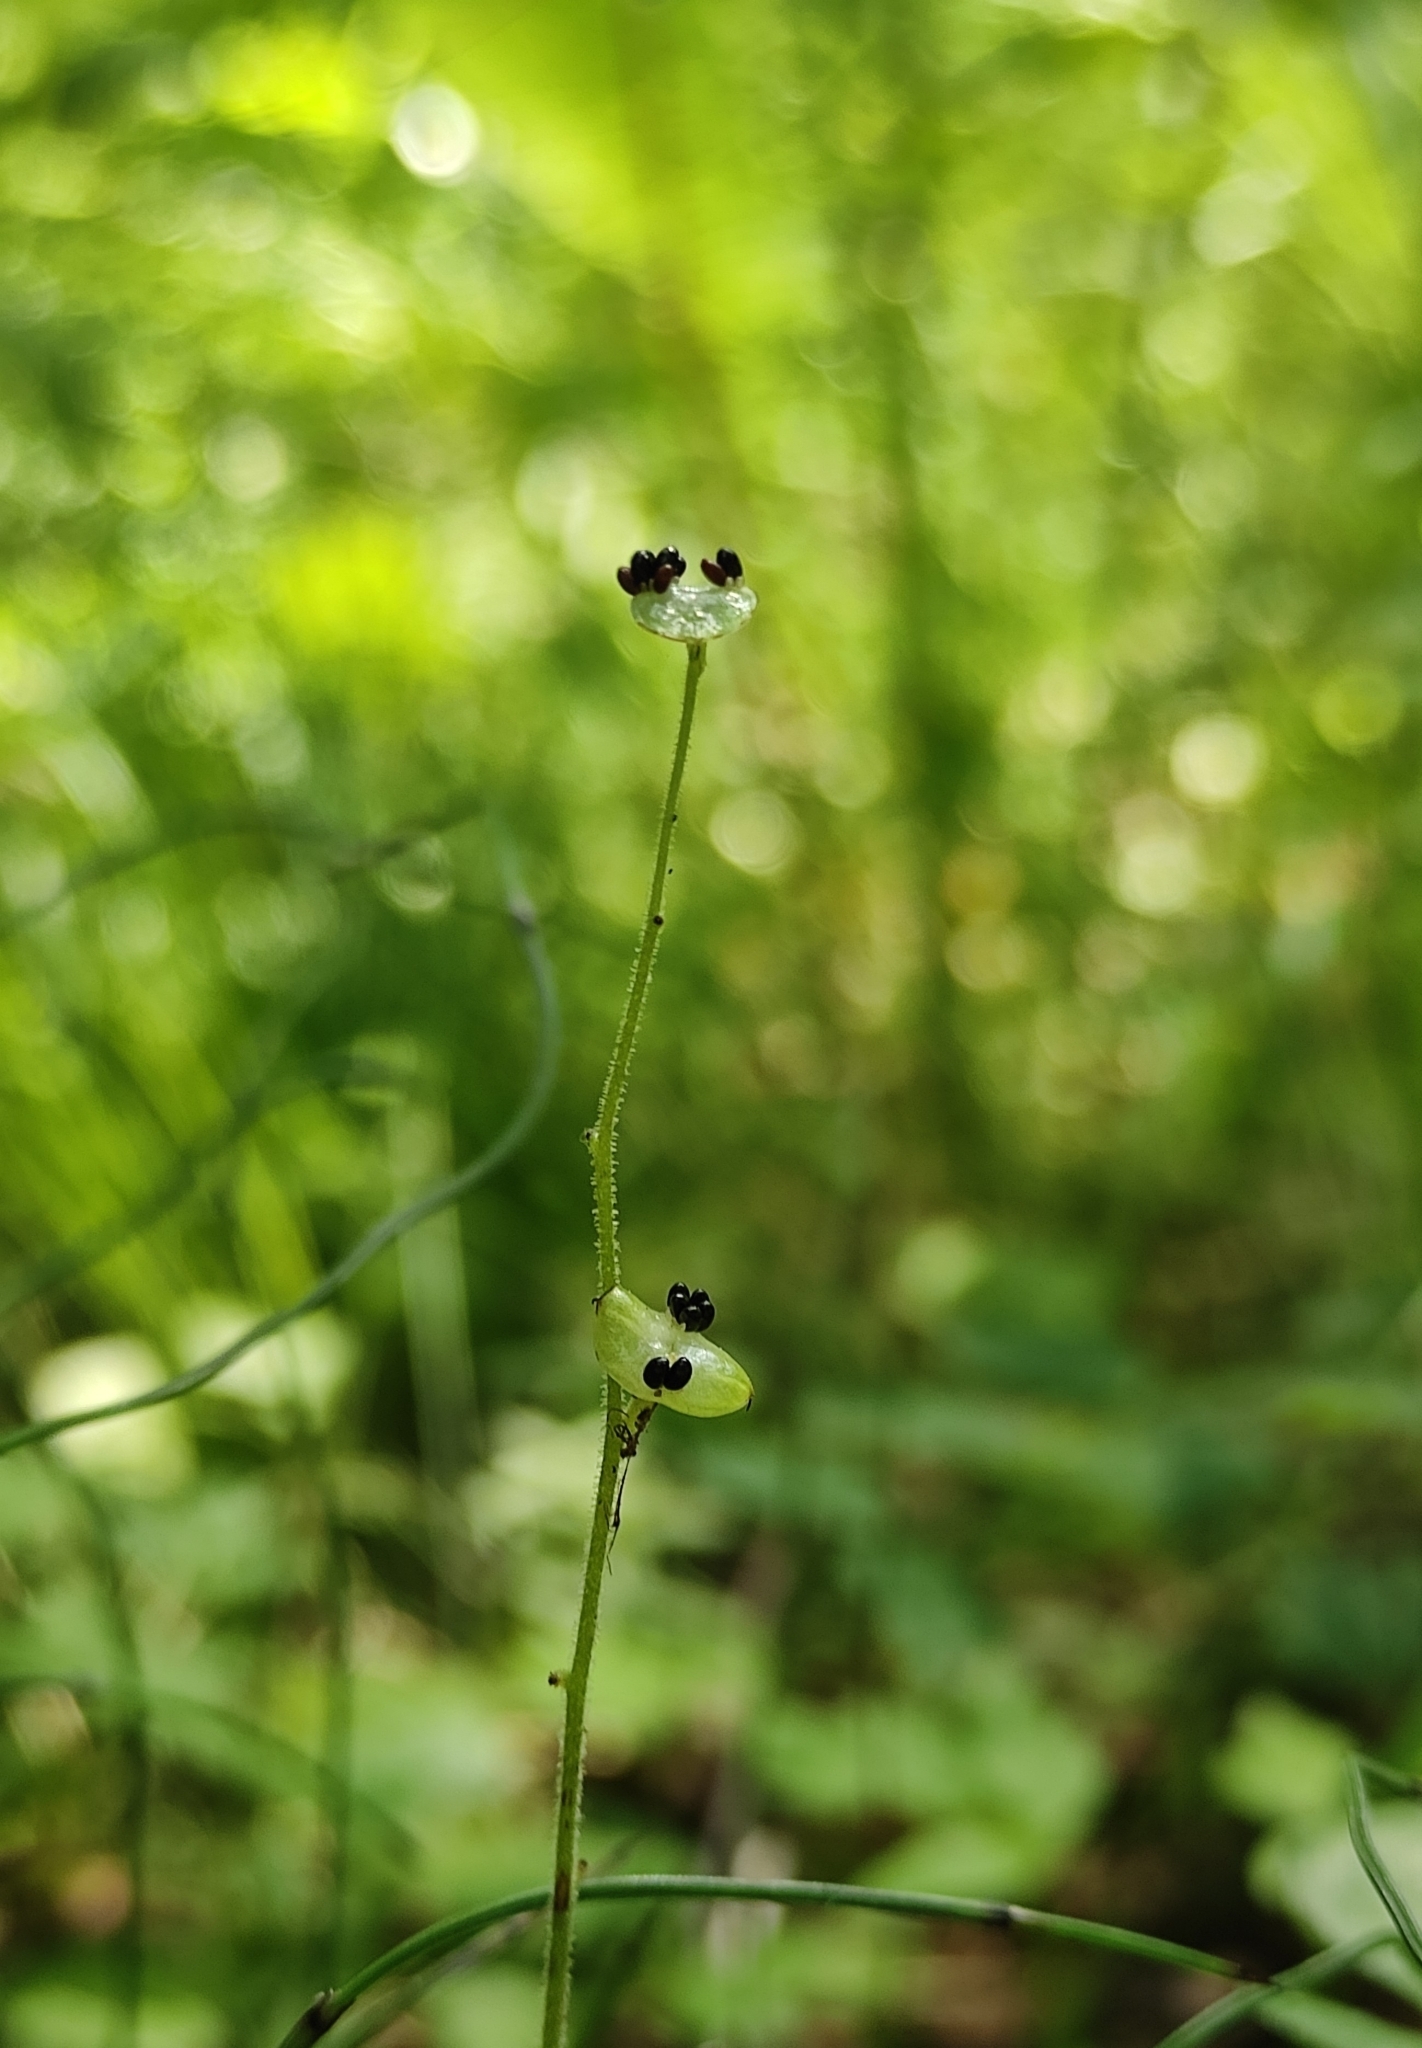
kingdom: Plantae
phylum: Tracheophyta
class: Magnoliopsida
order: Saxifragales
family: Saxifragaceae
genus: Mitella
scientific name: Mitella nuda
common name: Bare-stemmed bishop's-cap
